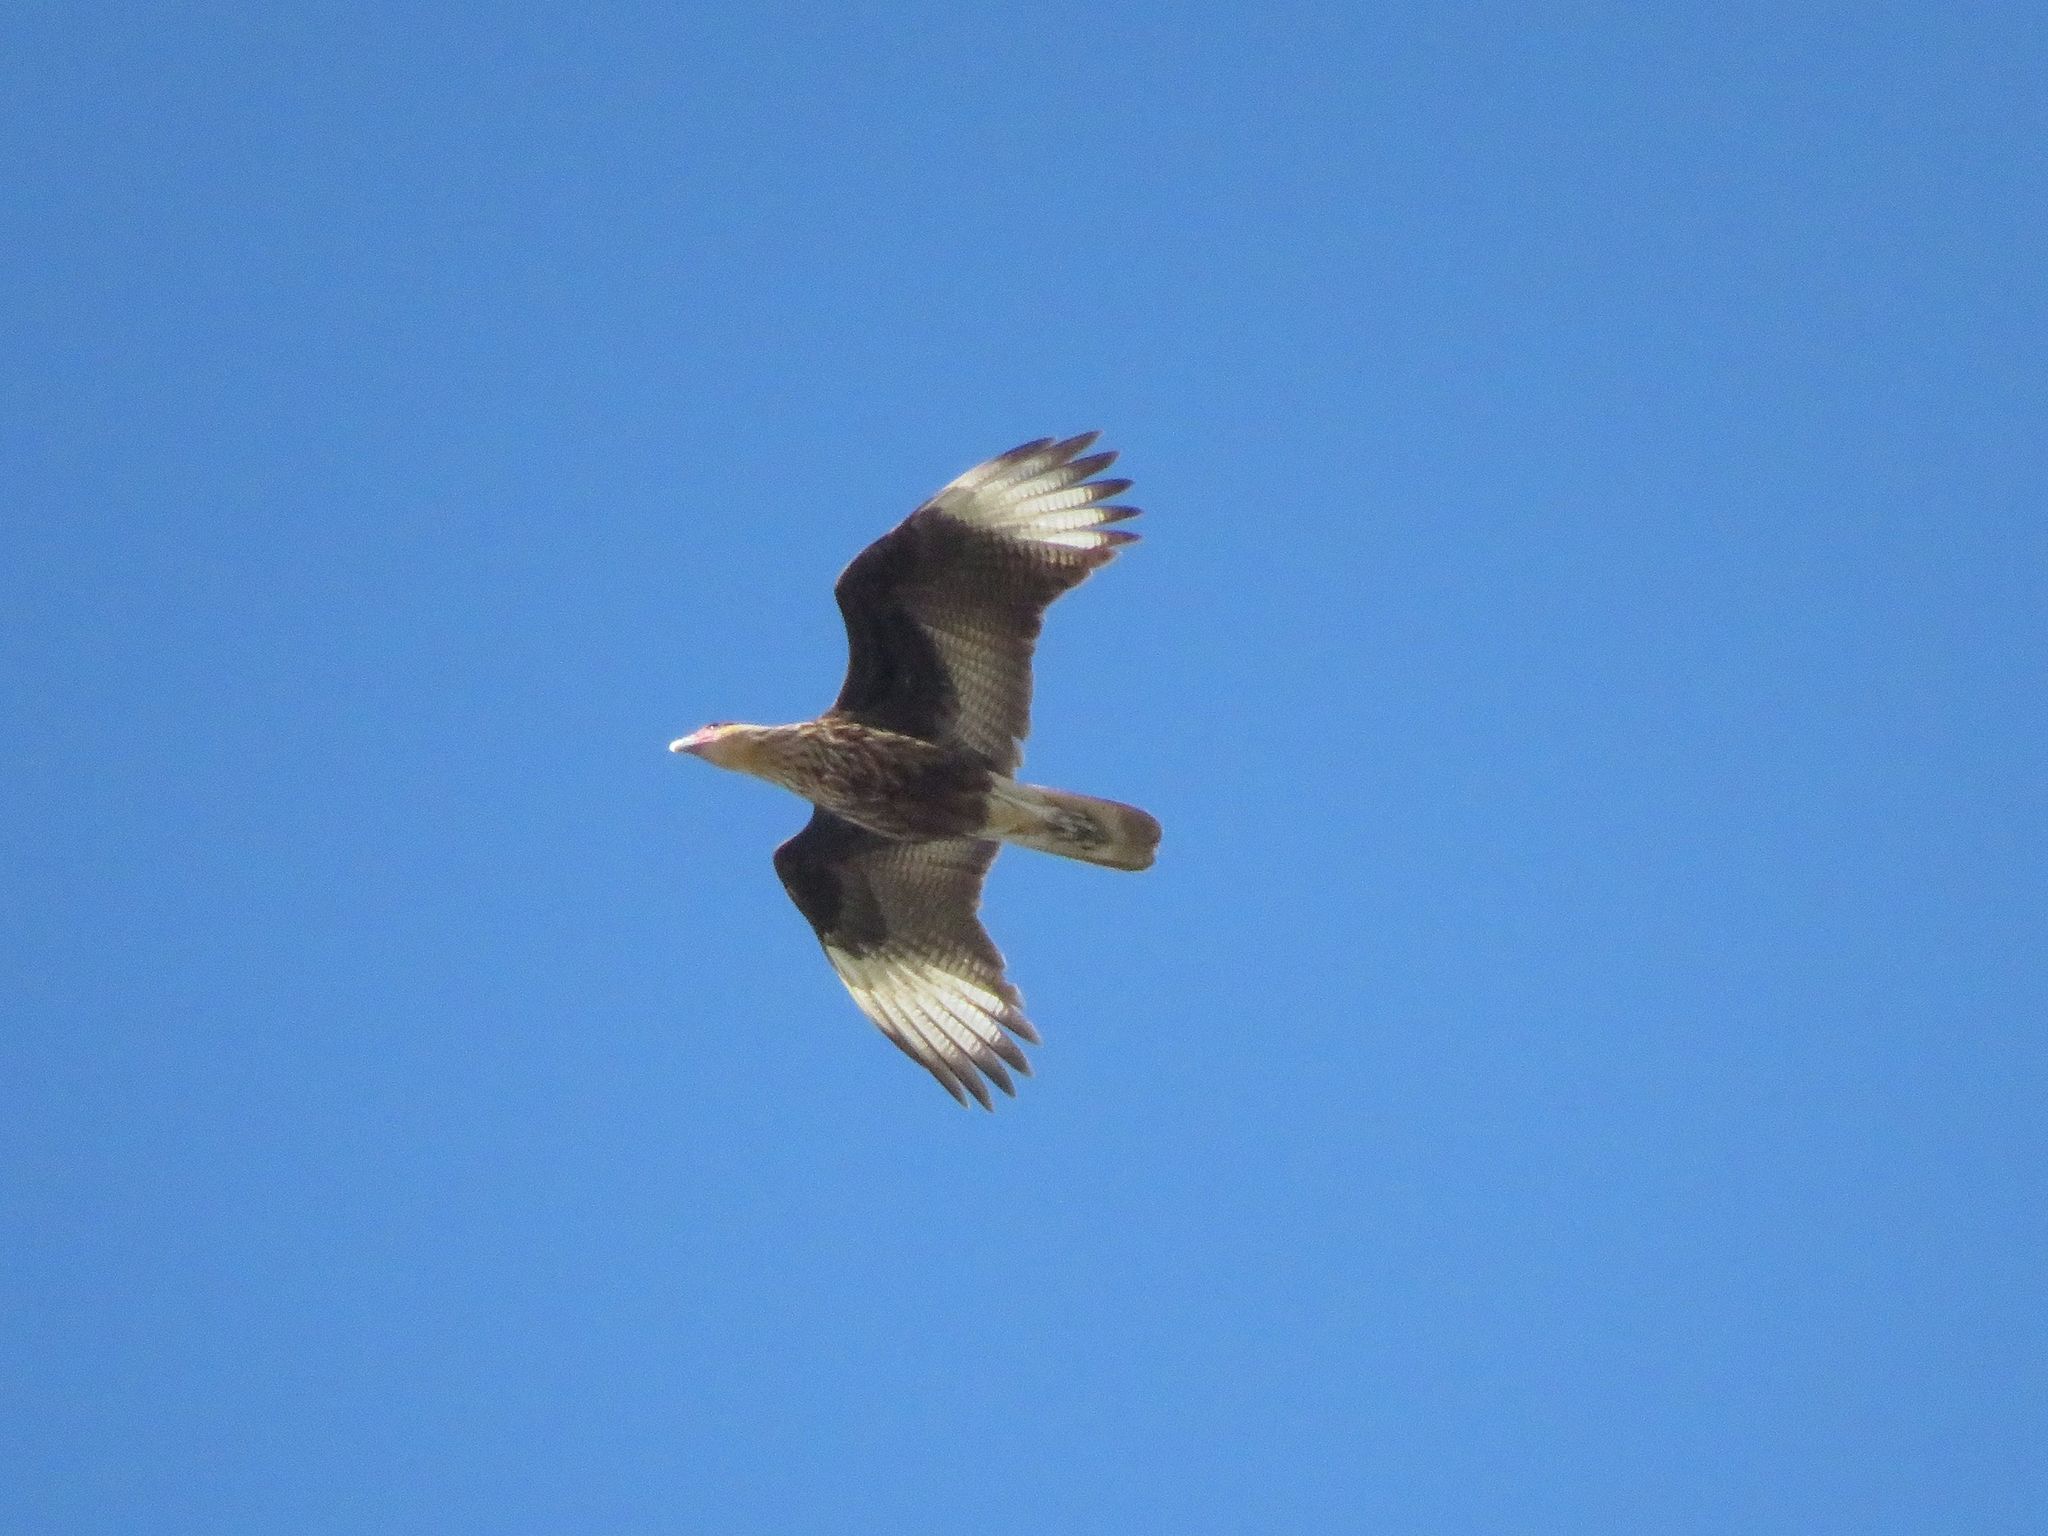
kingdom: Animalia
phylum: Chordata
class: Aves
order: Falconiformes
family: Falconidae
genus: Caracara
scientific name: Caracara plancus
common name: Southern caracara
